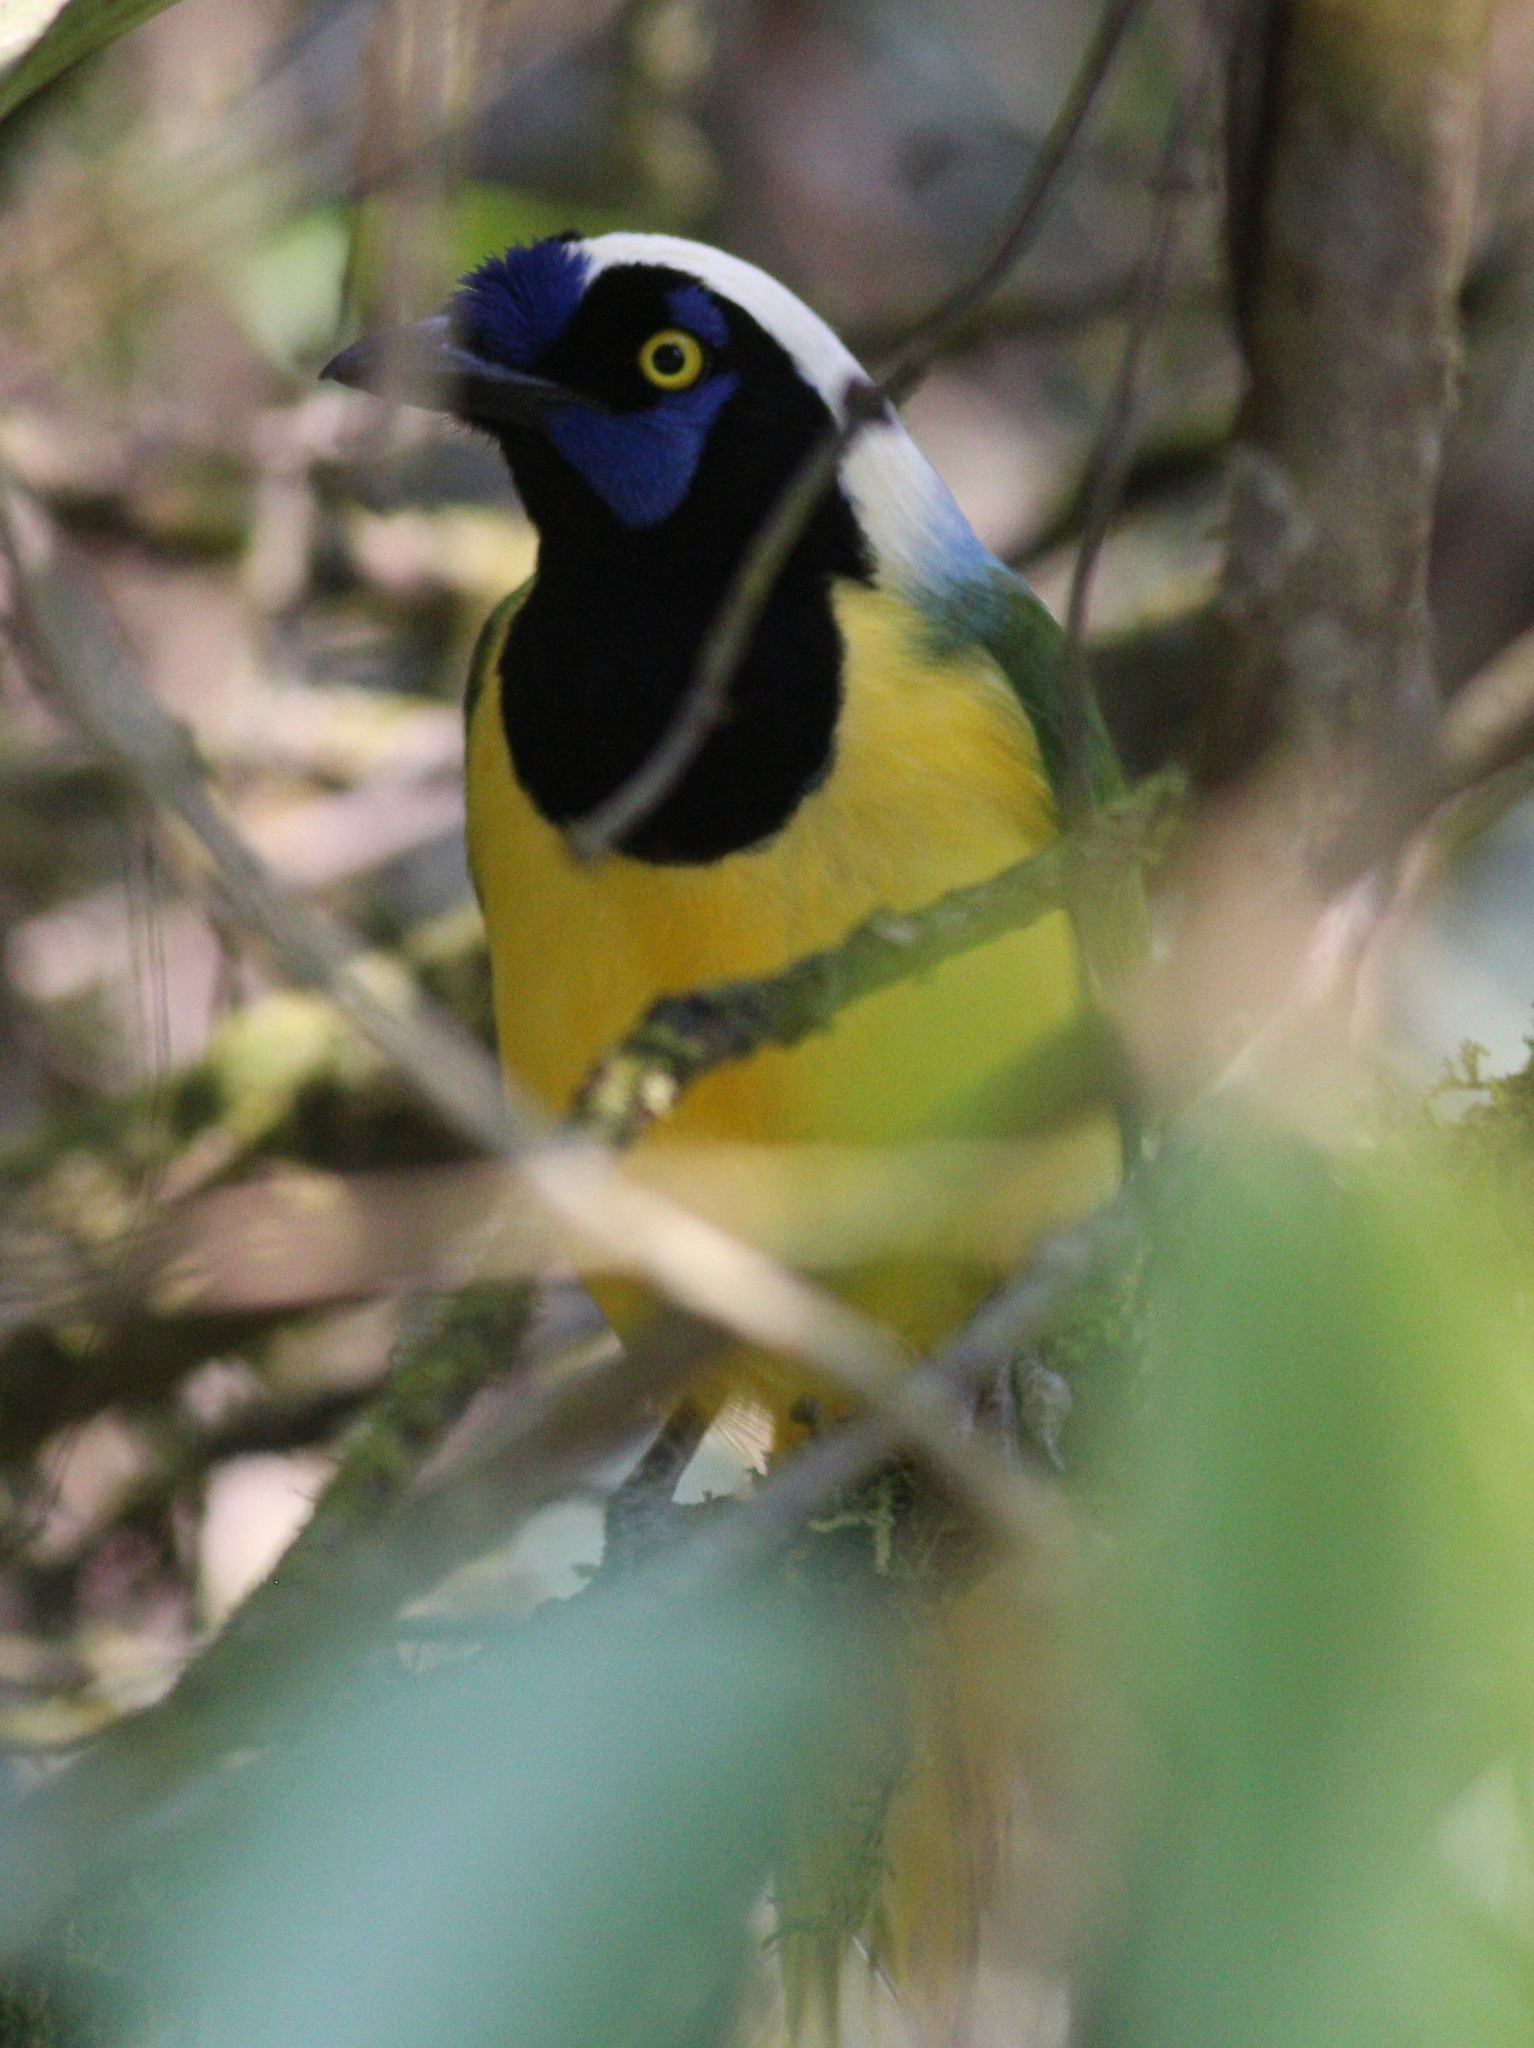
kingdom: Animalia
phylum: Chordata
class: Aves
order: Passeriformes
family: Corvidae
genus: Cyanocorax
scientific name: Cyanocorax yncas
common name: Green jay
